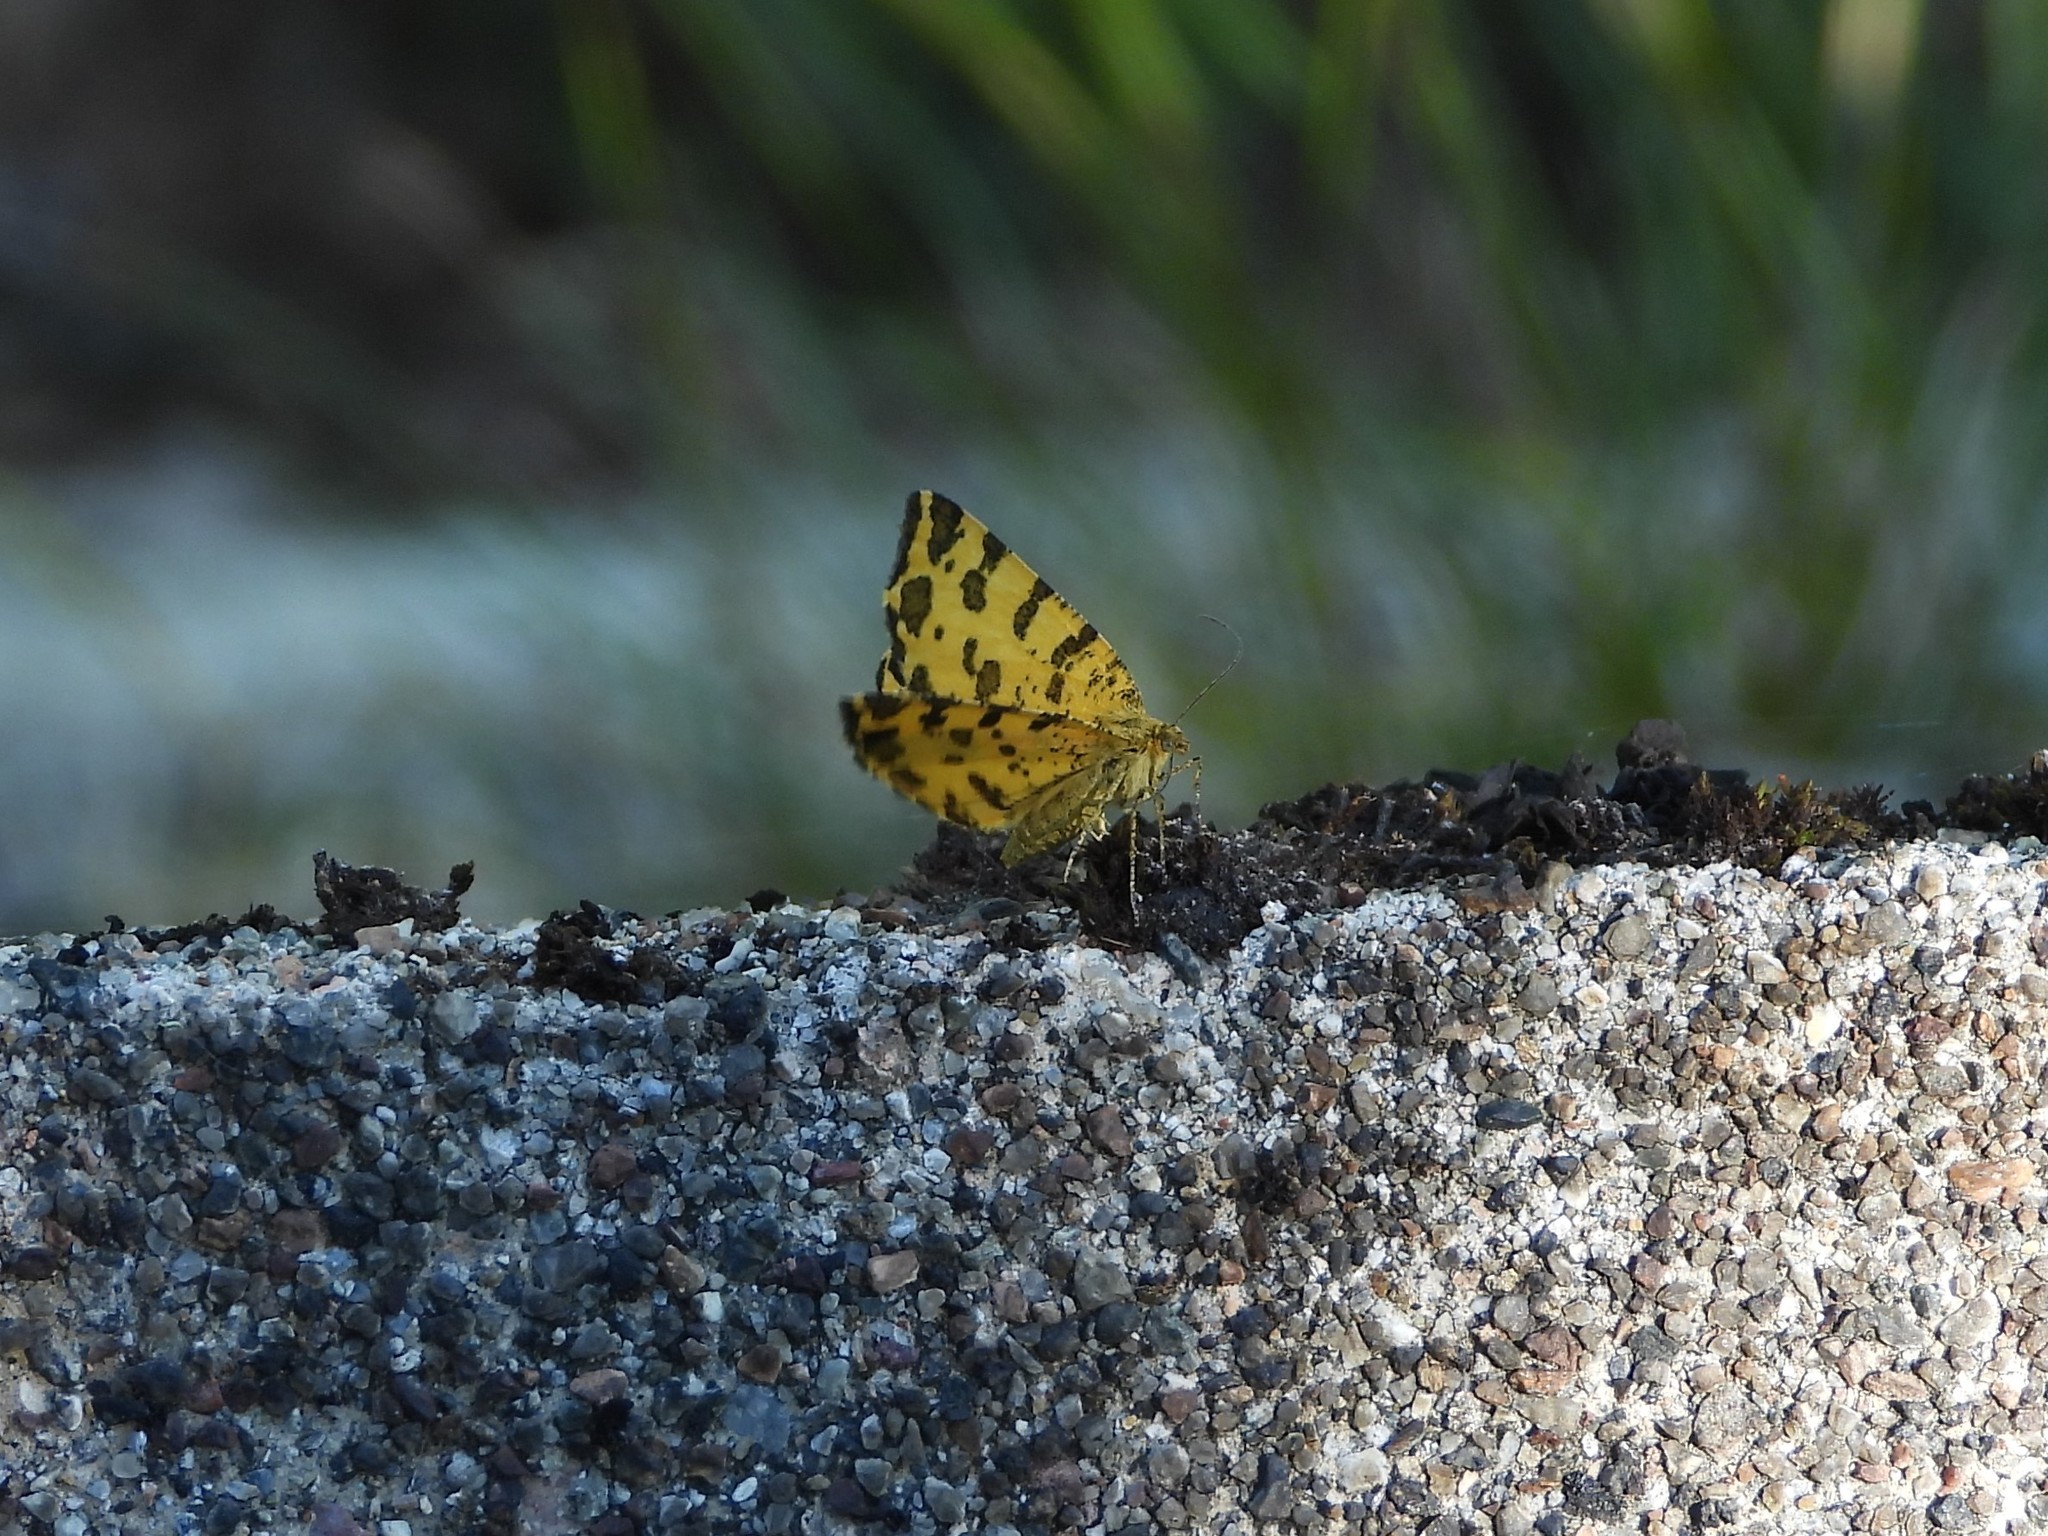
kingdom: Animalia
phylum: Arthropoda
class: Insecta
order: Lepidoptera
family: Geometridae
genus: Pseudopanthera
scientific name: Pseudopanthera macularia
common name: Speckled yellow
